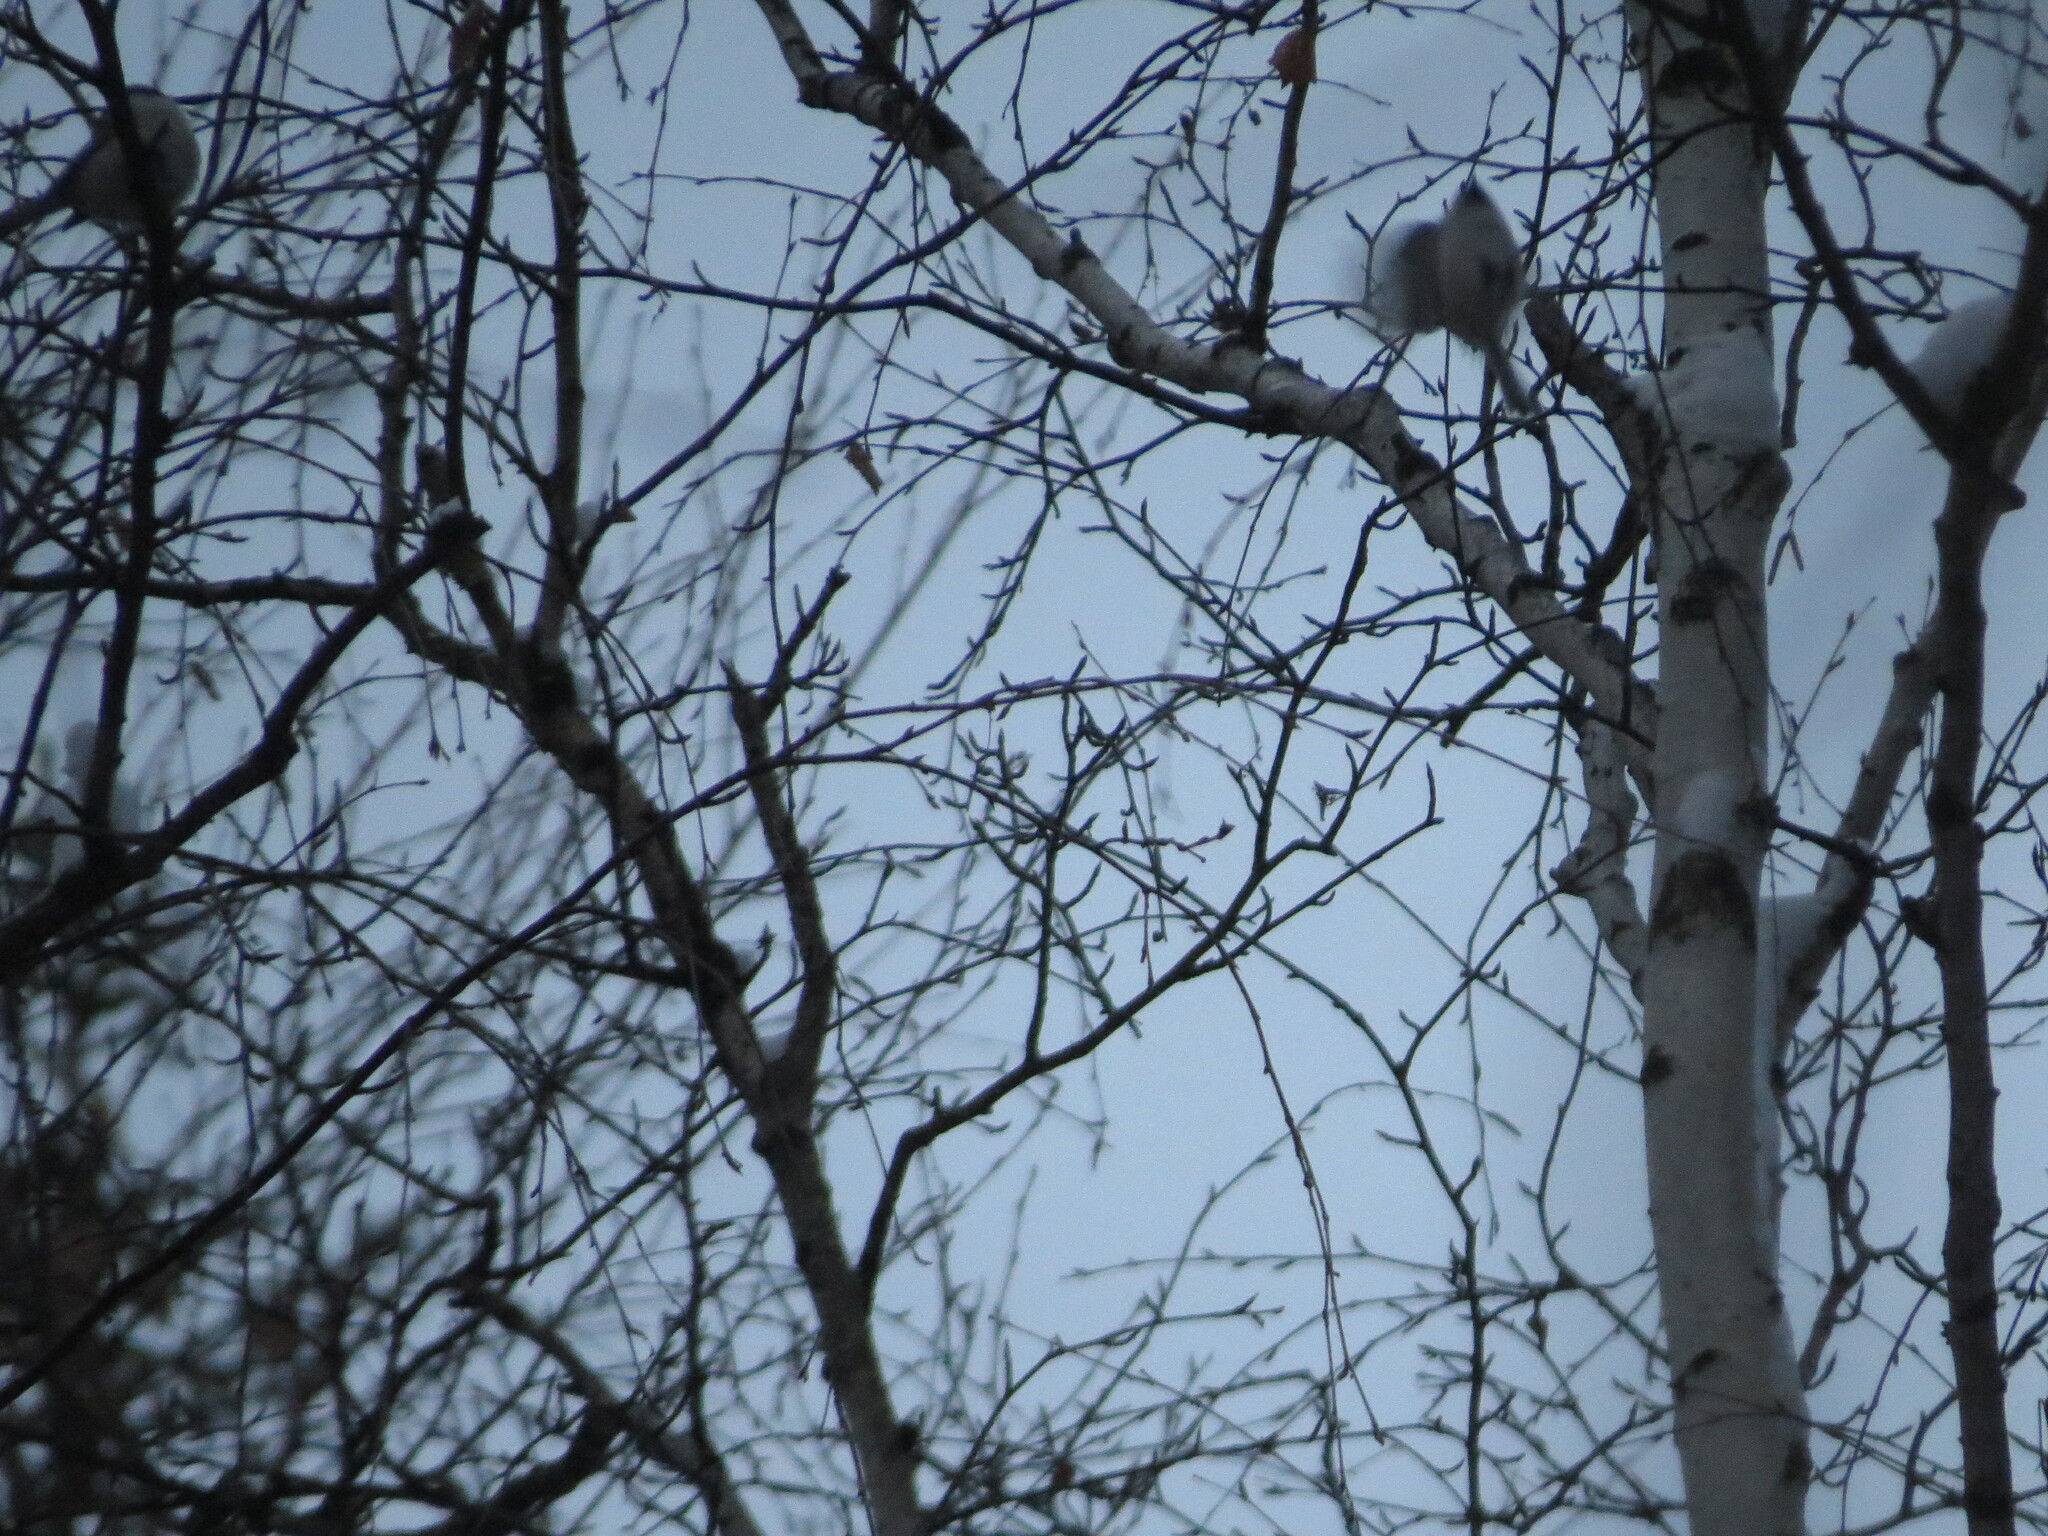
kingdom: Animalia
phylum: Chordata
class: Aves
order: Passeriformes
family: Paridae
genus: Poecile
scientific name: Poecile montanus
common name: Willow tit
